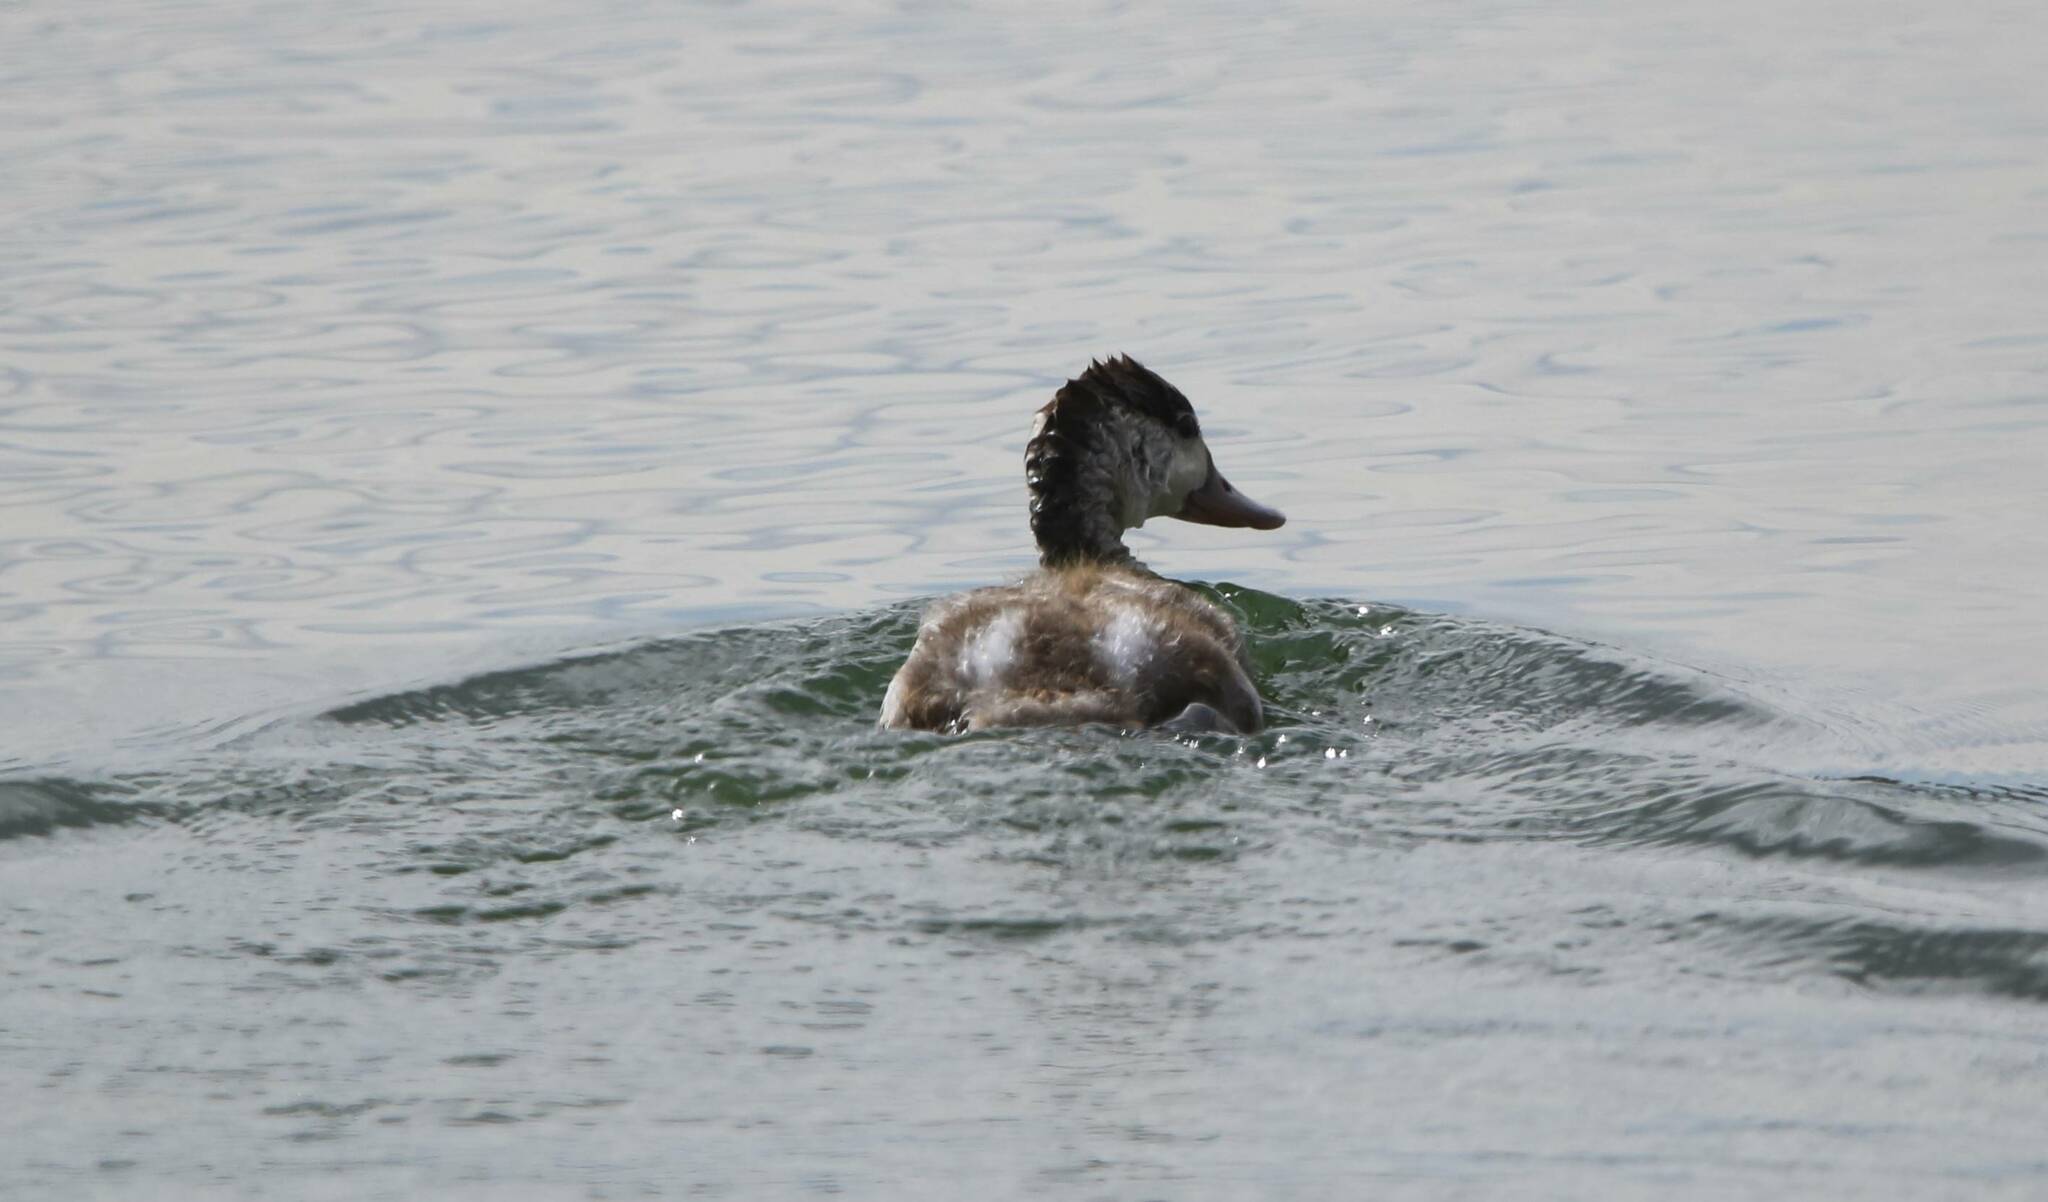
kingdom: Animalia
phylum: Chordata
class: Aves
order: Anseriformes
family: Anatidae
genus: Tadorna
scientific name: Tadorna tadorna
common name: Common shelduck
